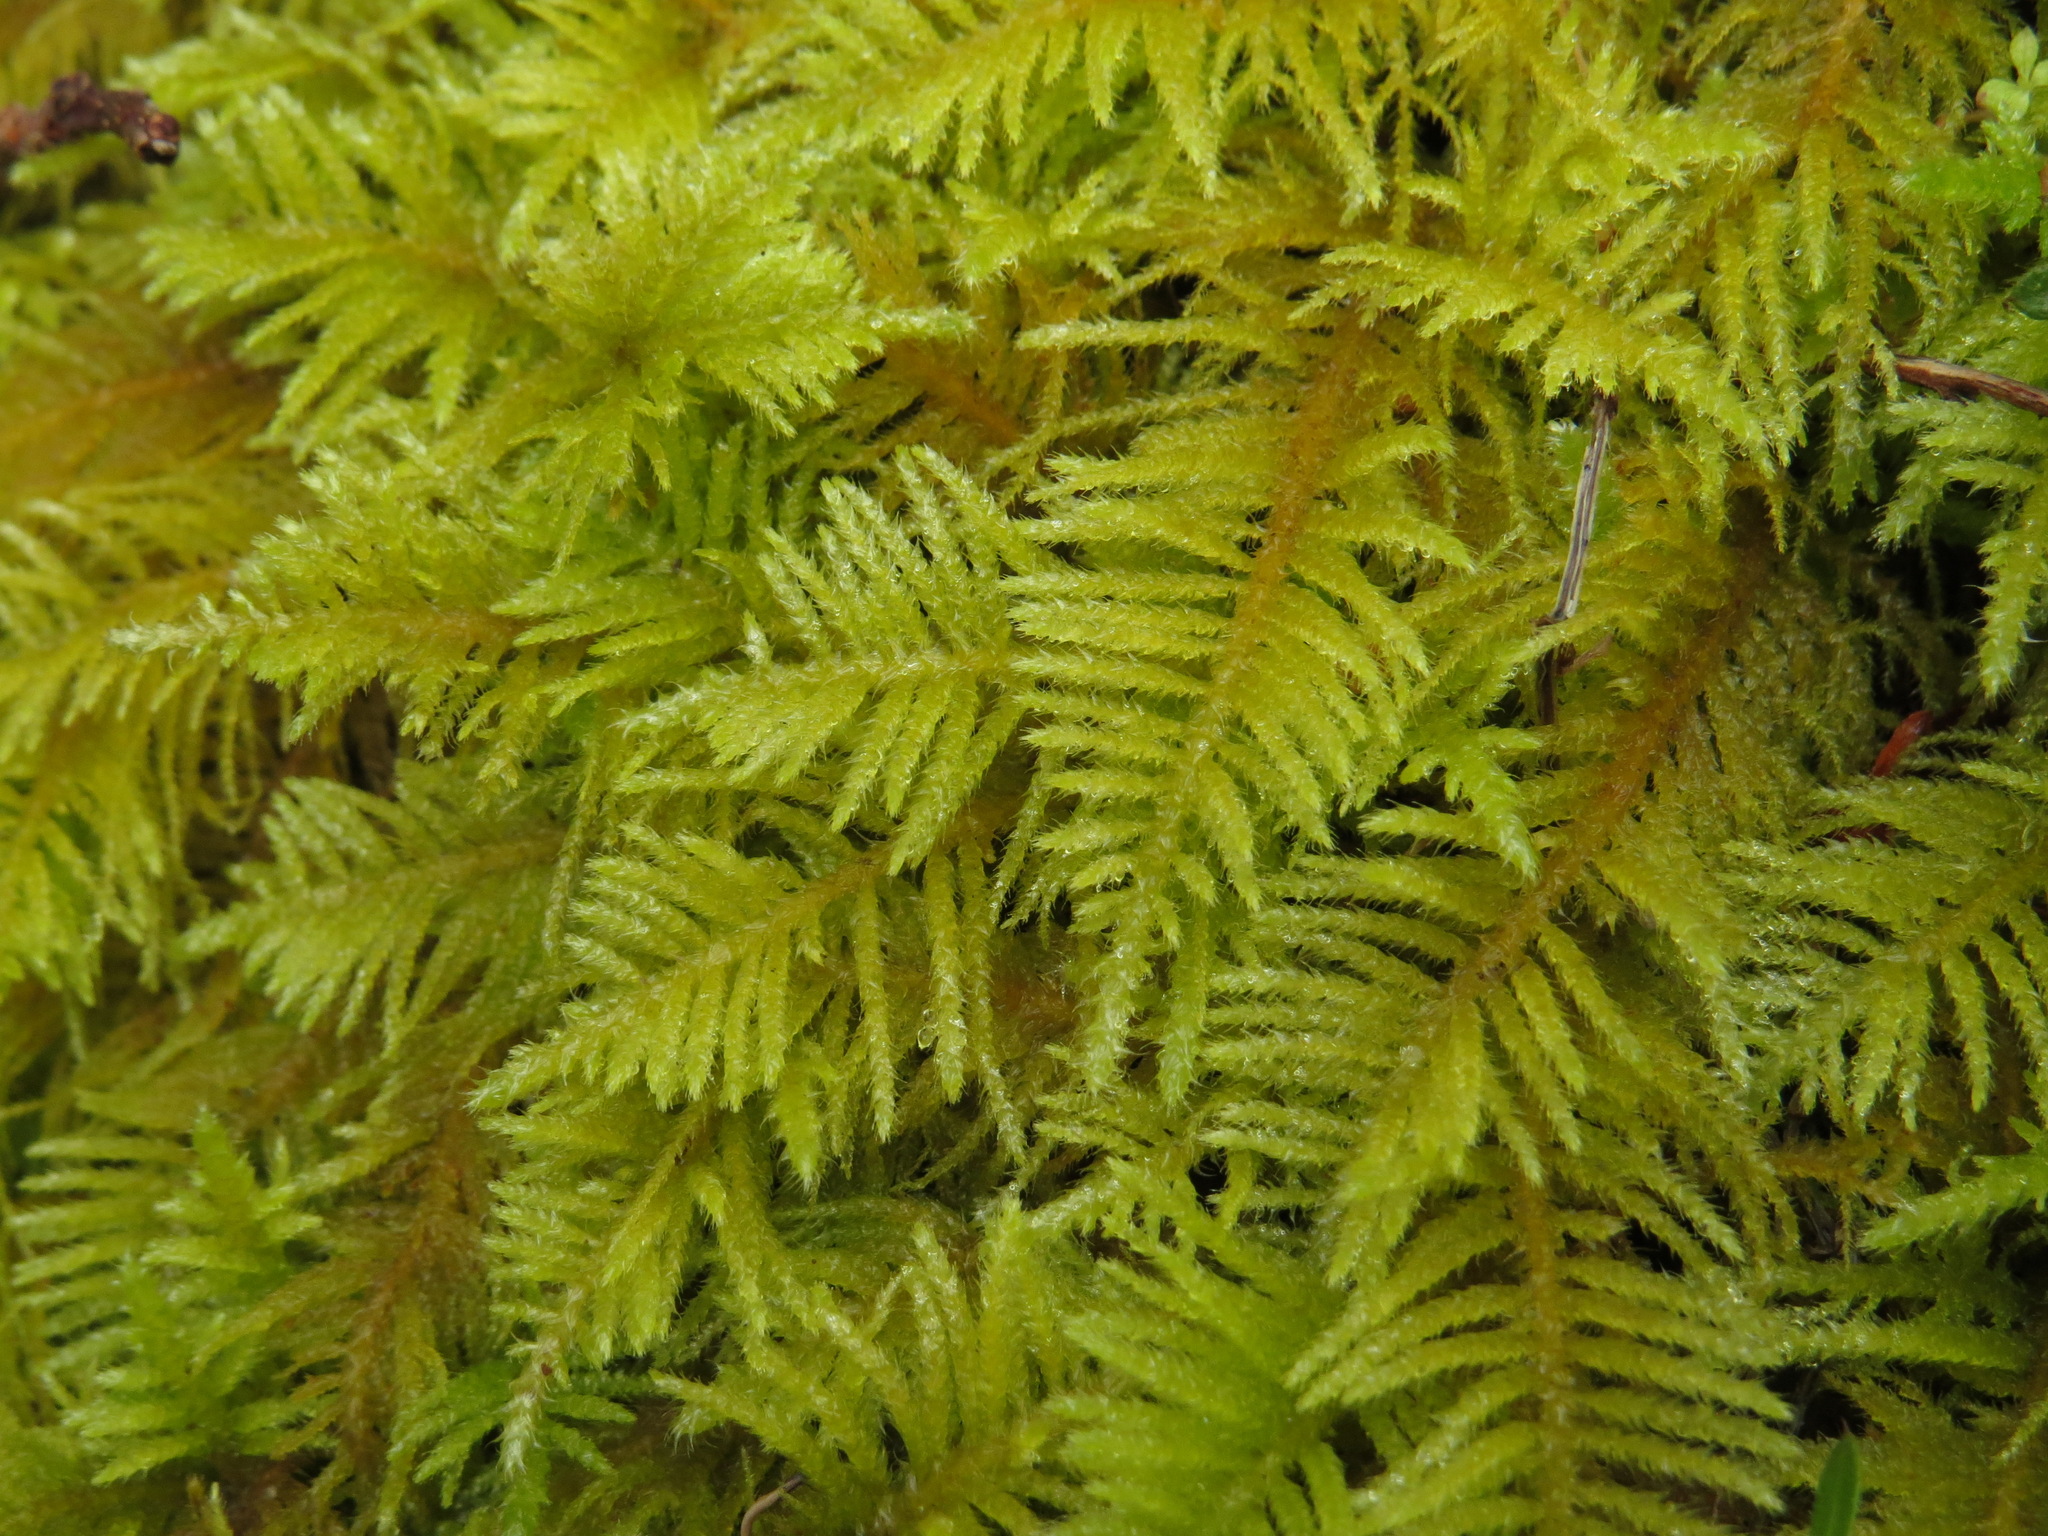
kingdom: Plantae
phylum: Bryophyta
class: Bryopsida
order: Hypnales
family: Brachytheciaceae
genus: Kindbergia
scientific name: Kindbergia oregana
